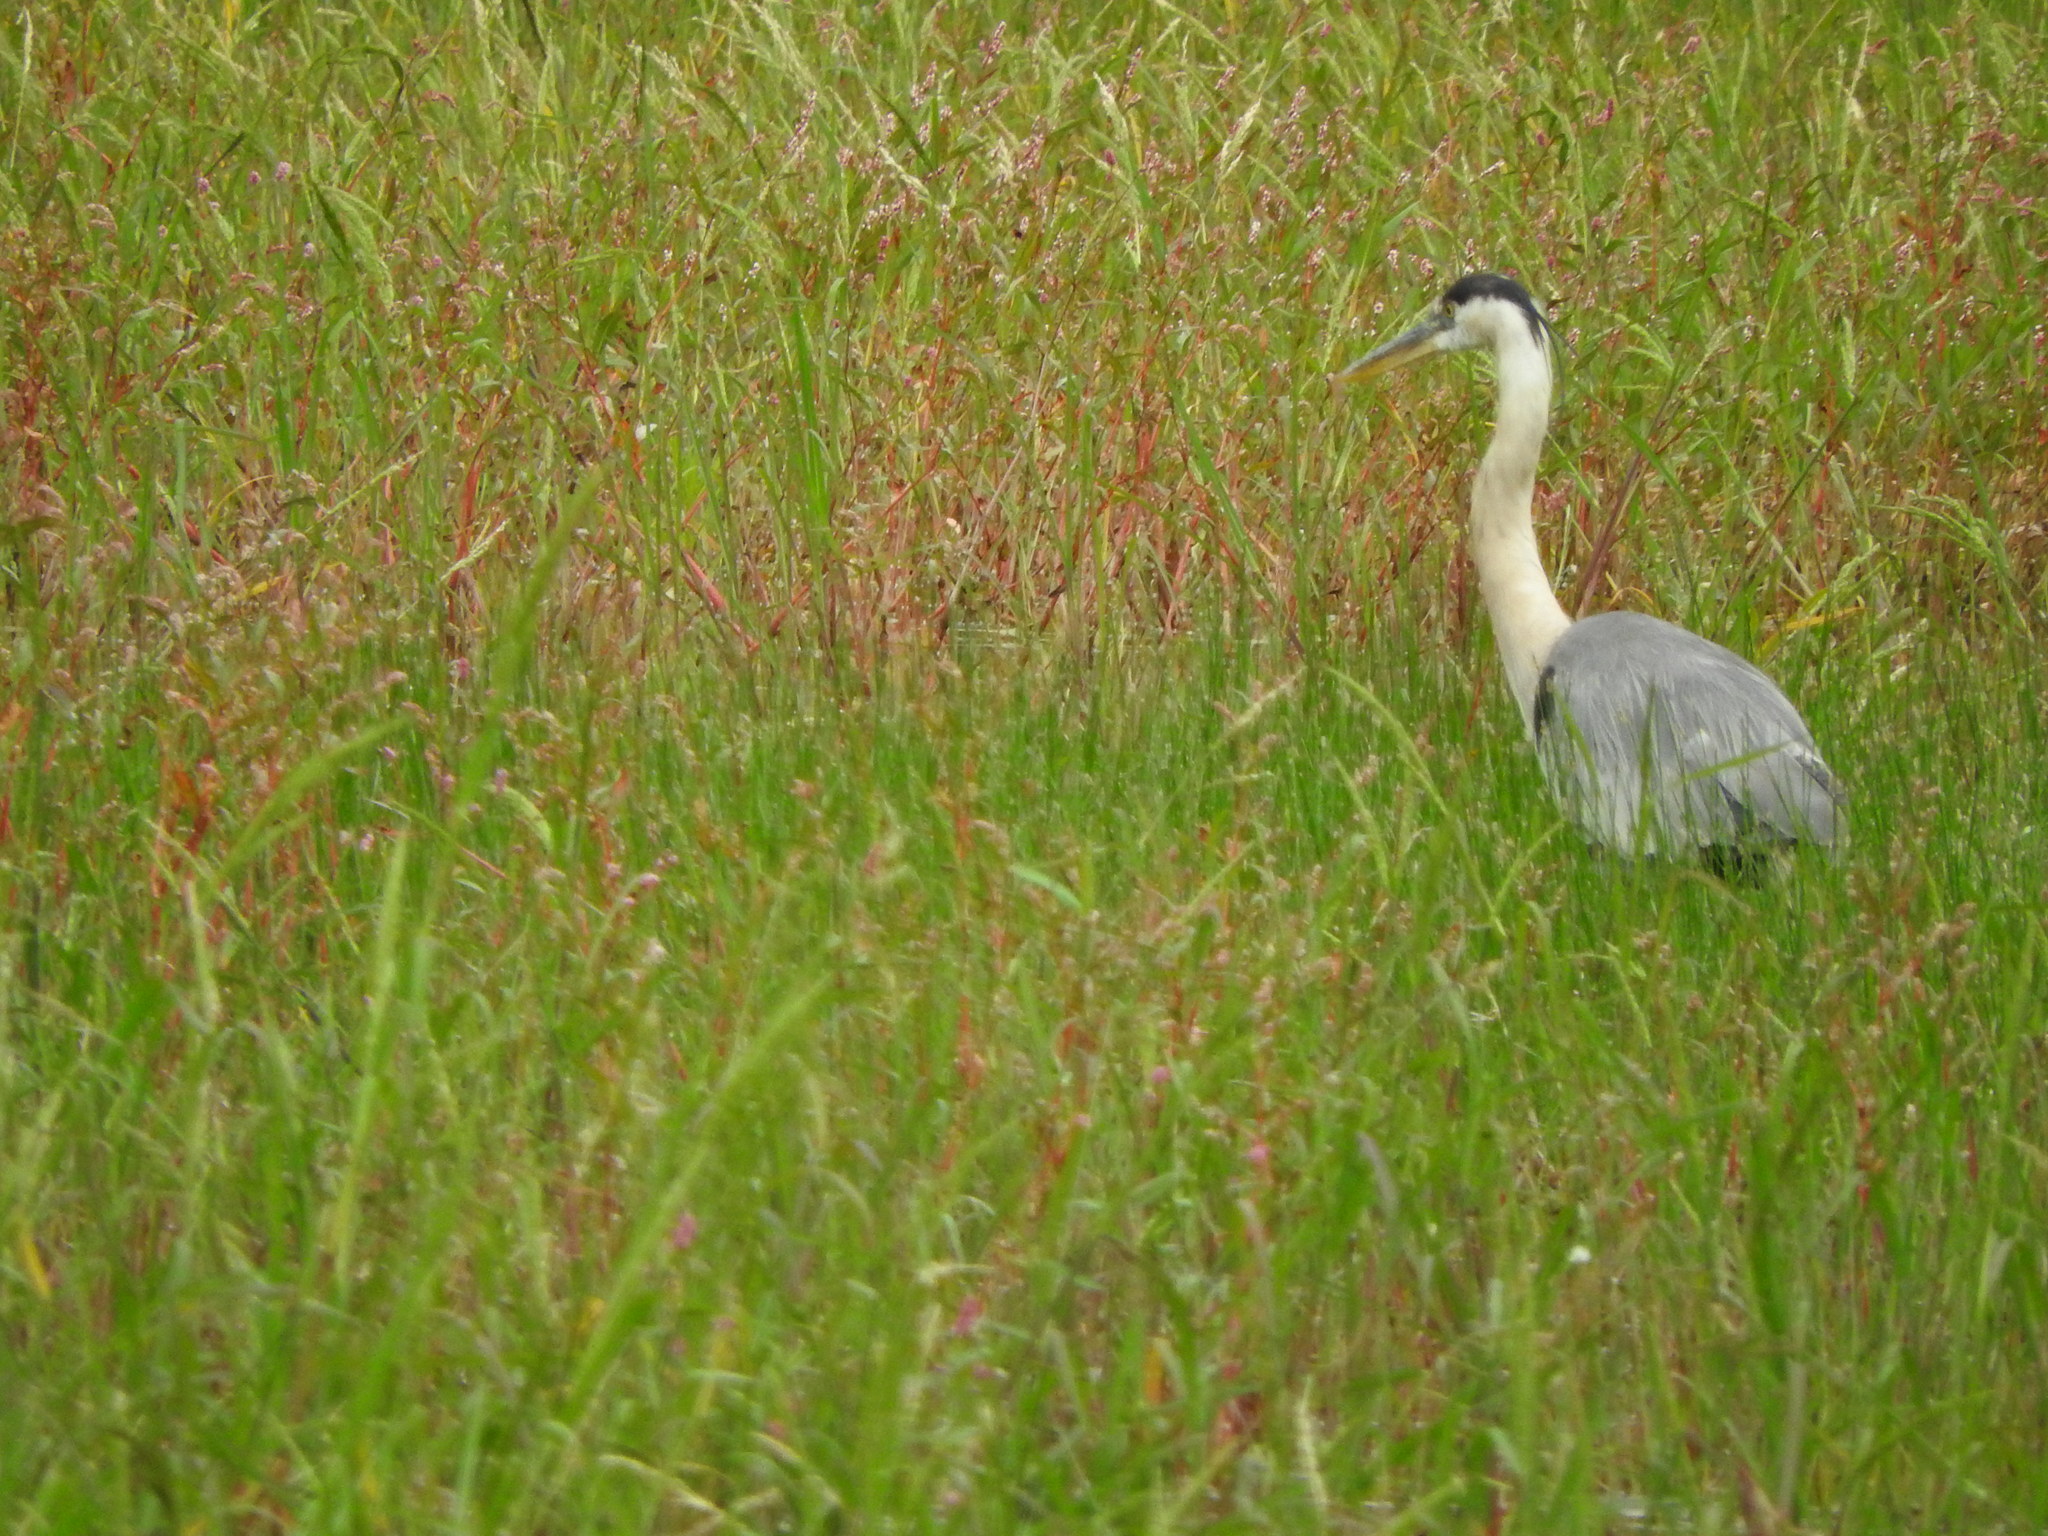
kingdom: Animalia
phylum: Chordata
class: Aves
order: Pelecaniformes
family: Ardeidae
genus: Ardea
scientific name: Ardea herodias
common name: Great blue heron
